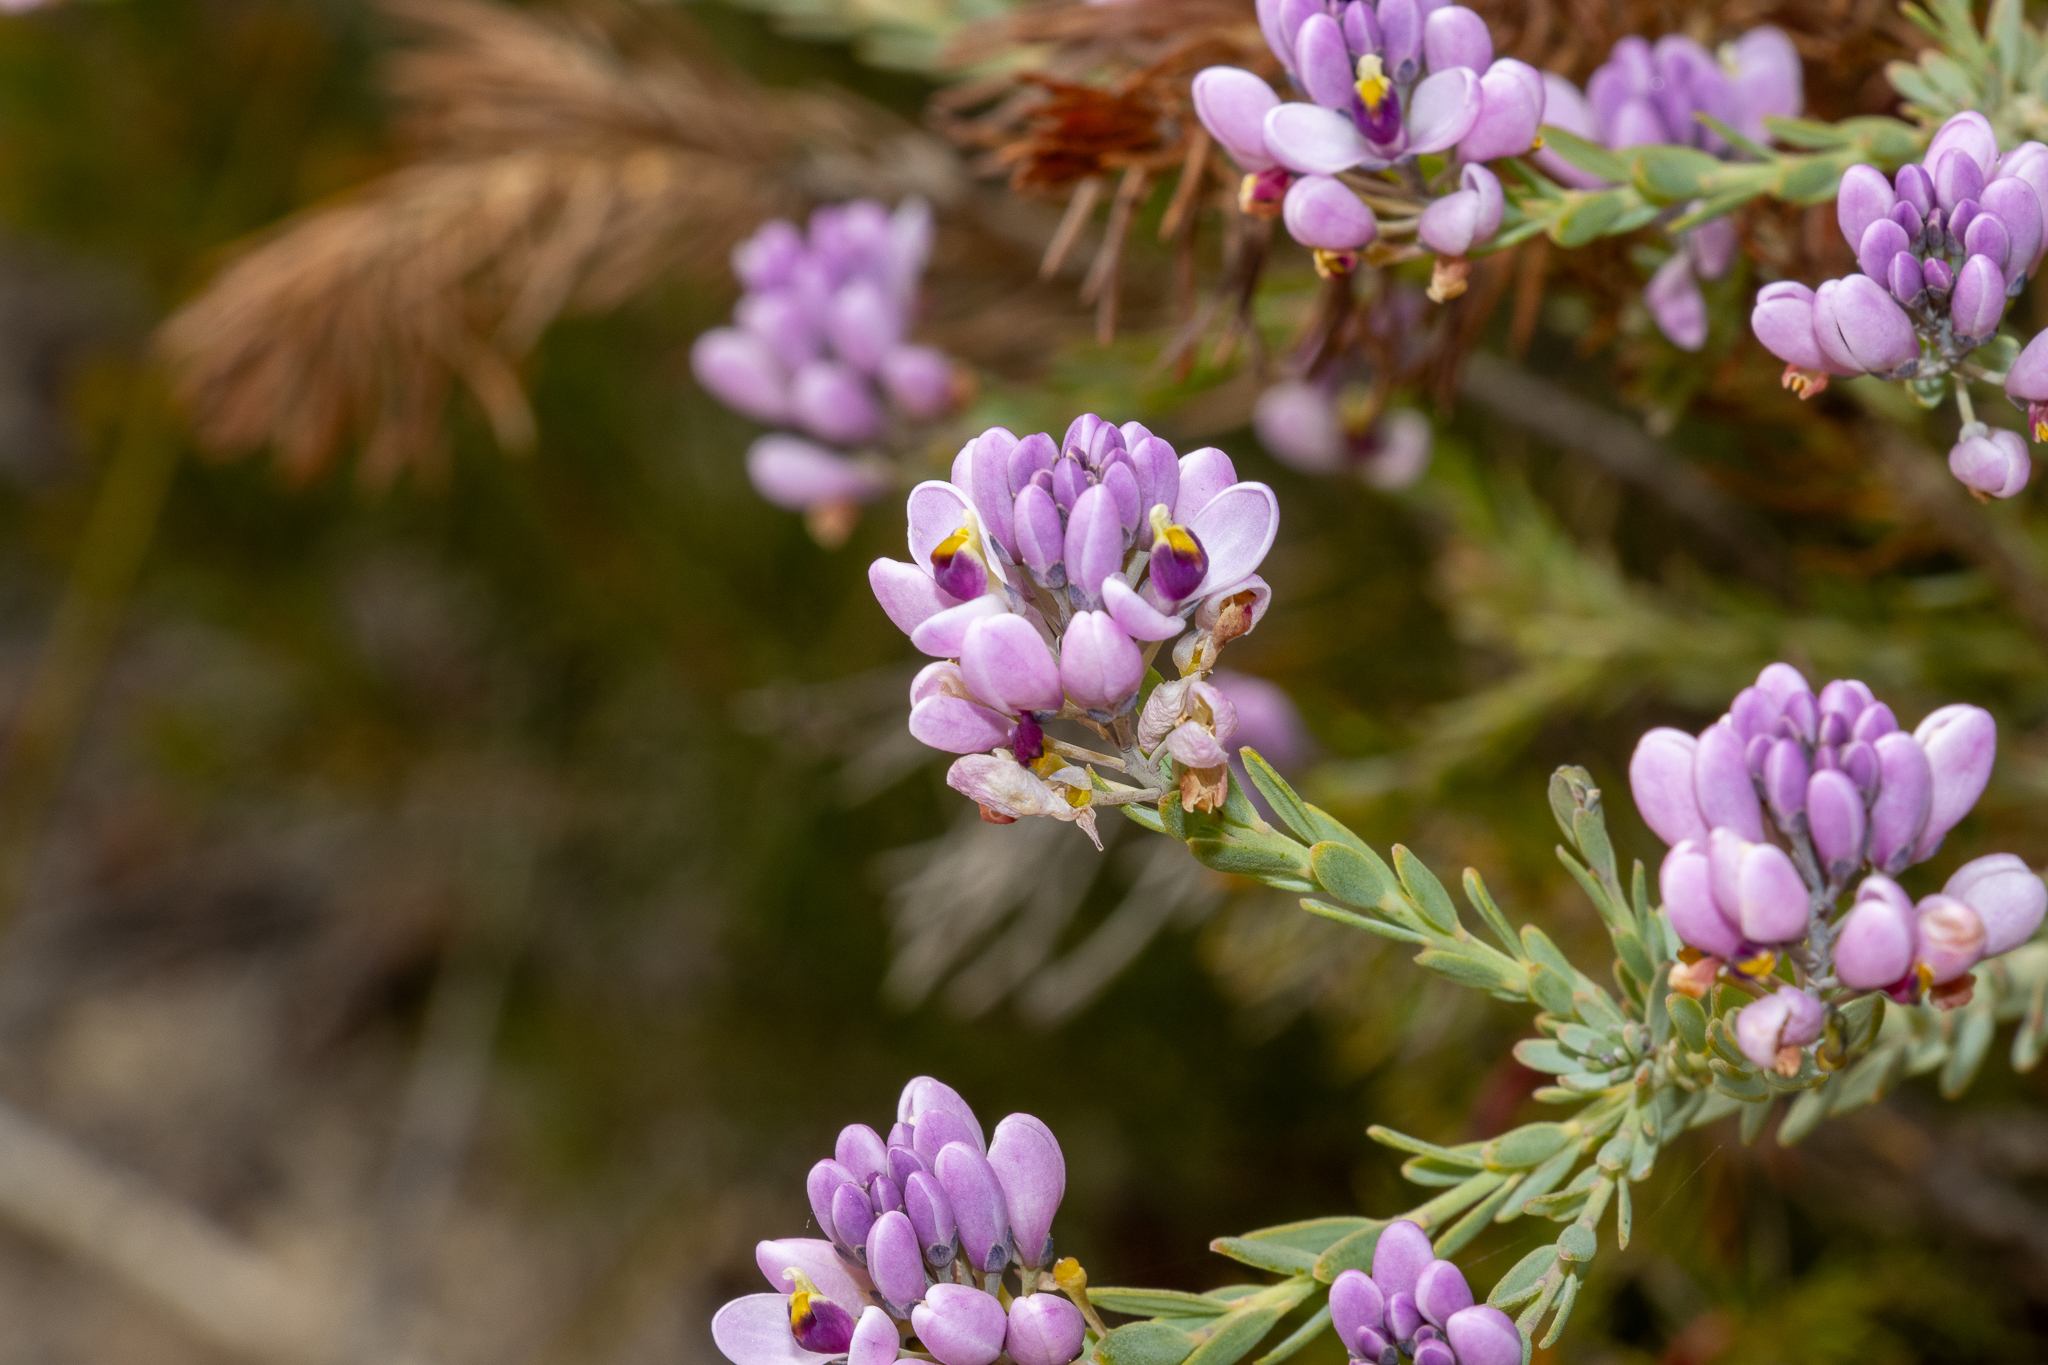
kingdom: Plantae
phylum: Tracheophyta
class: Magnoliopsida
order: Fabales
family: Polygalaceae
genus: Comesperma
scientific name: Comesperma drummondii
